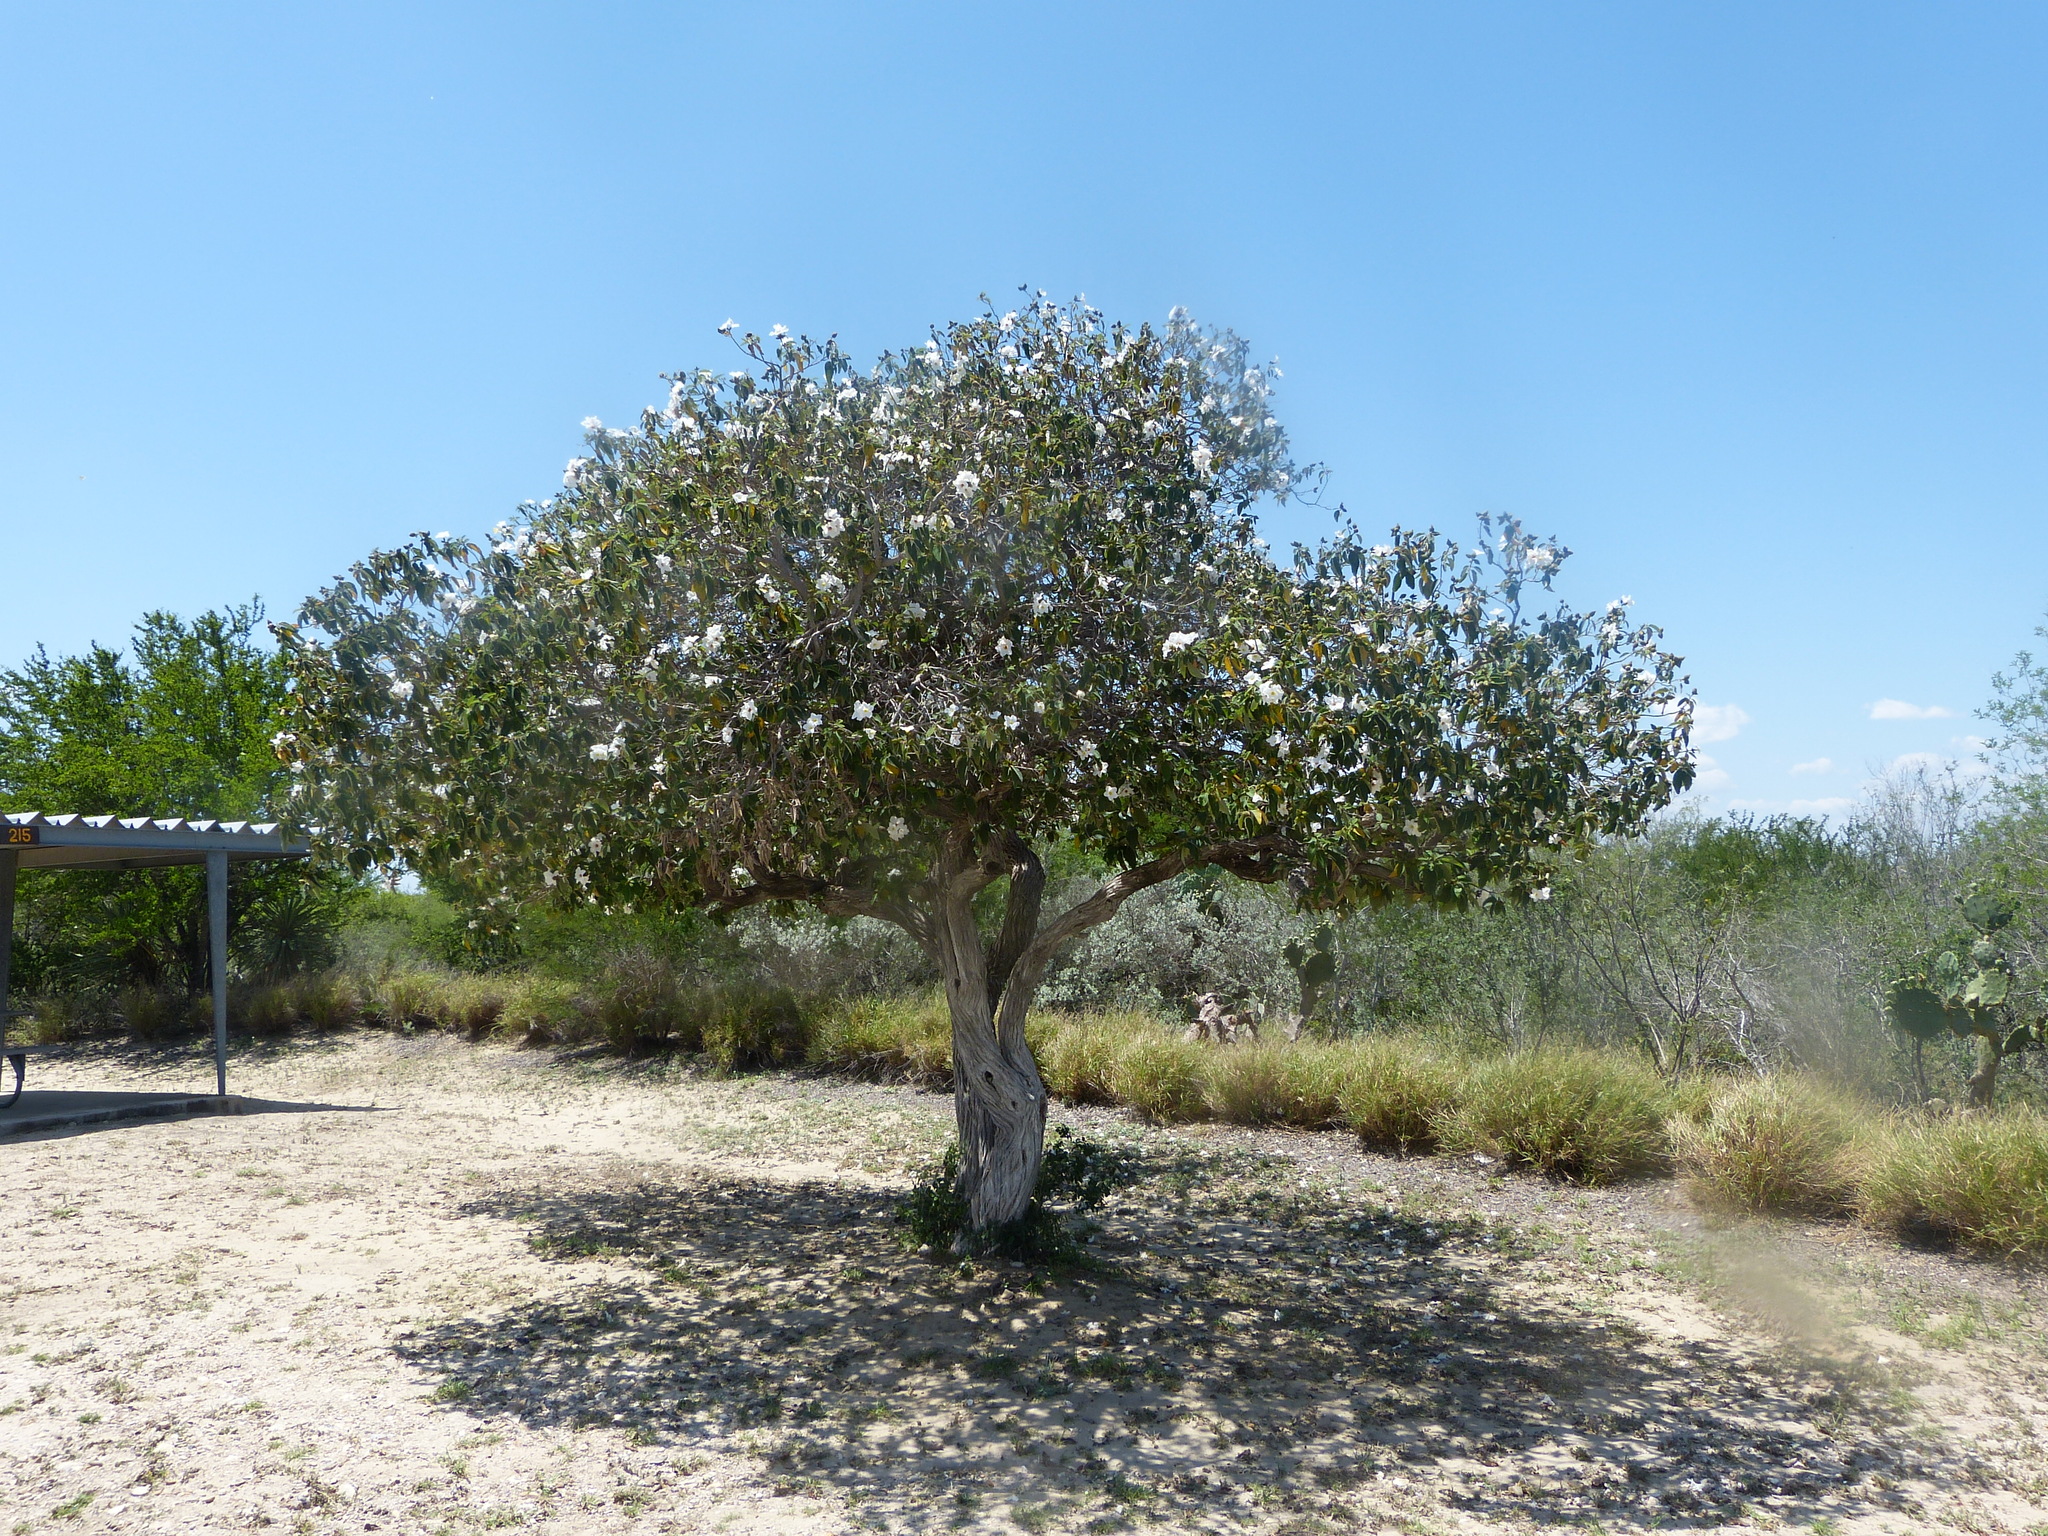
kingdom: Plantae
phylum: Tracheophyta
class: Magnoliopsida
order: Boraginales
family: Cordiaceae
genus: Cordia
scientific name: Cordia boissieri
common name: Mexican-olive
